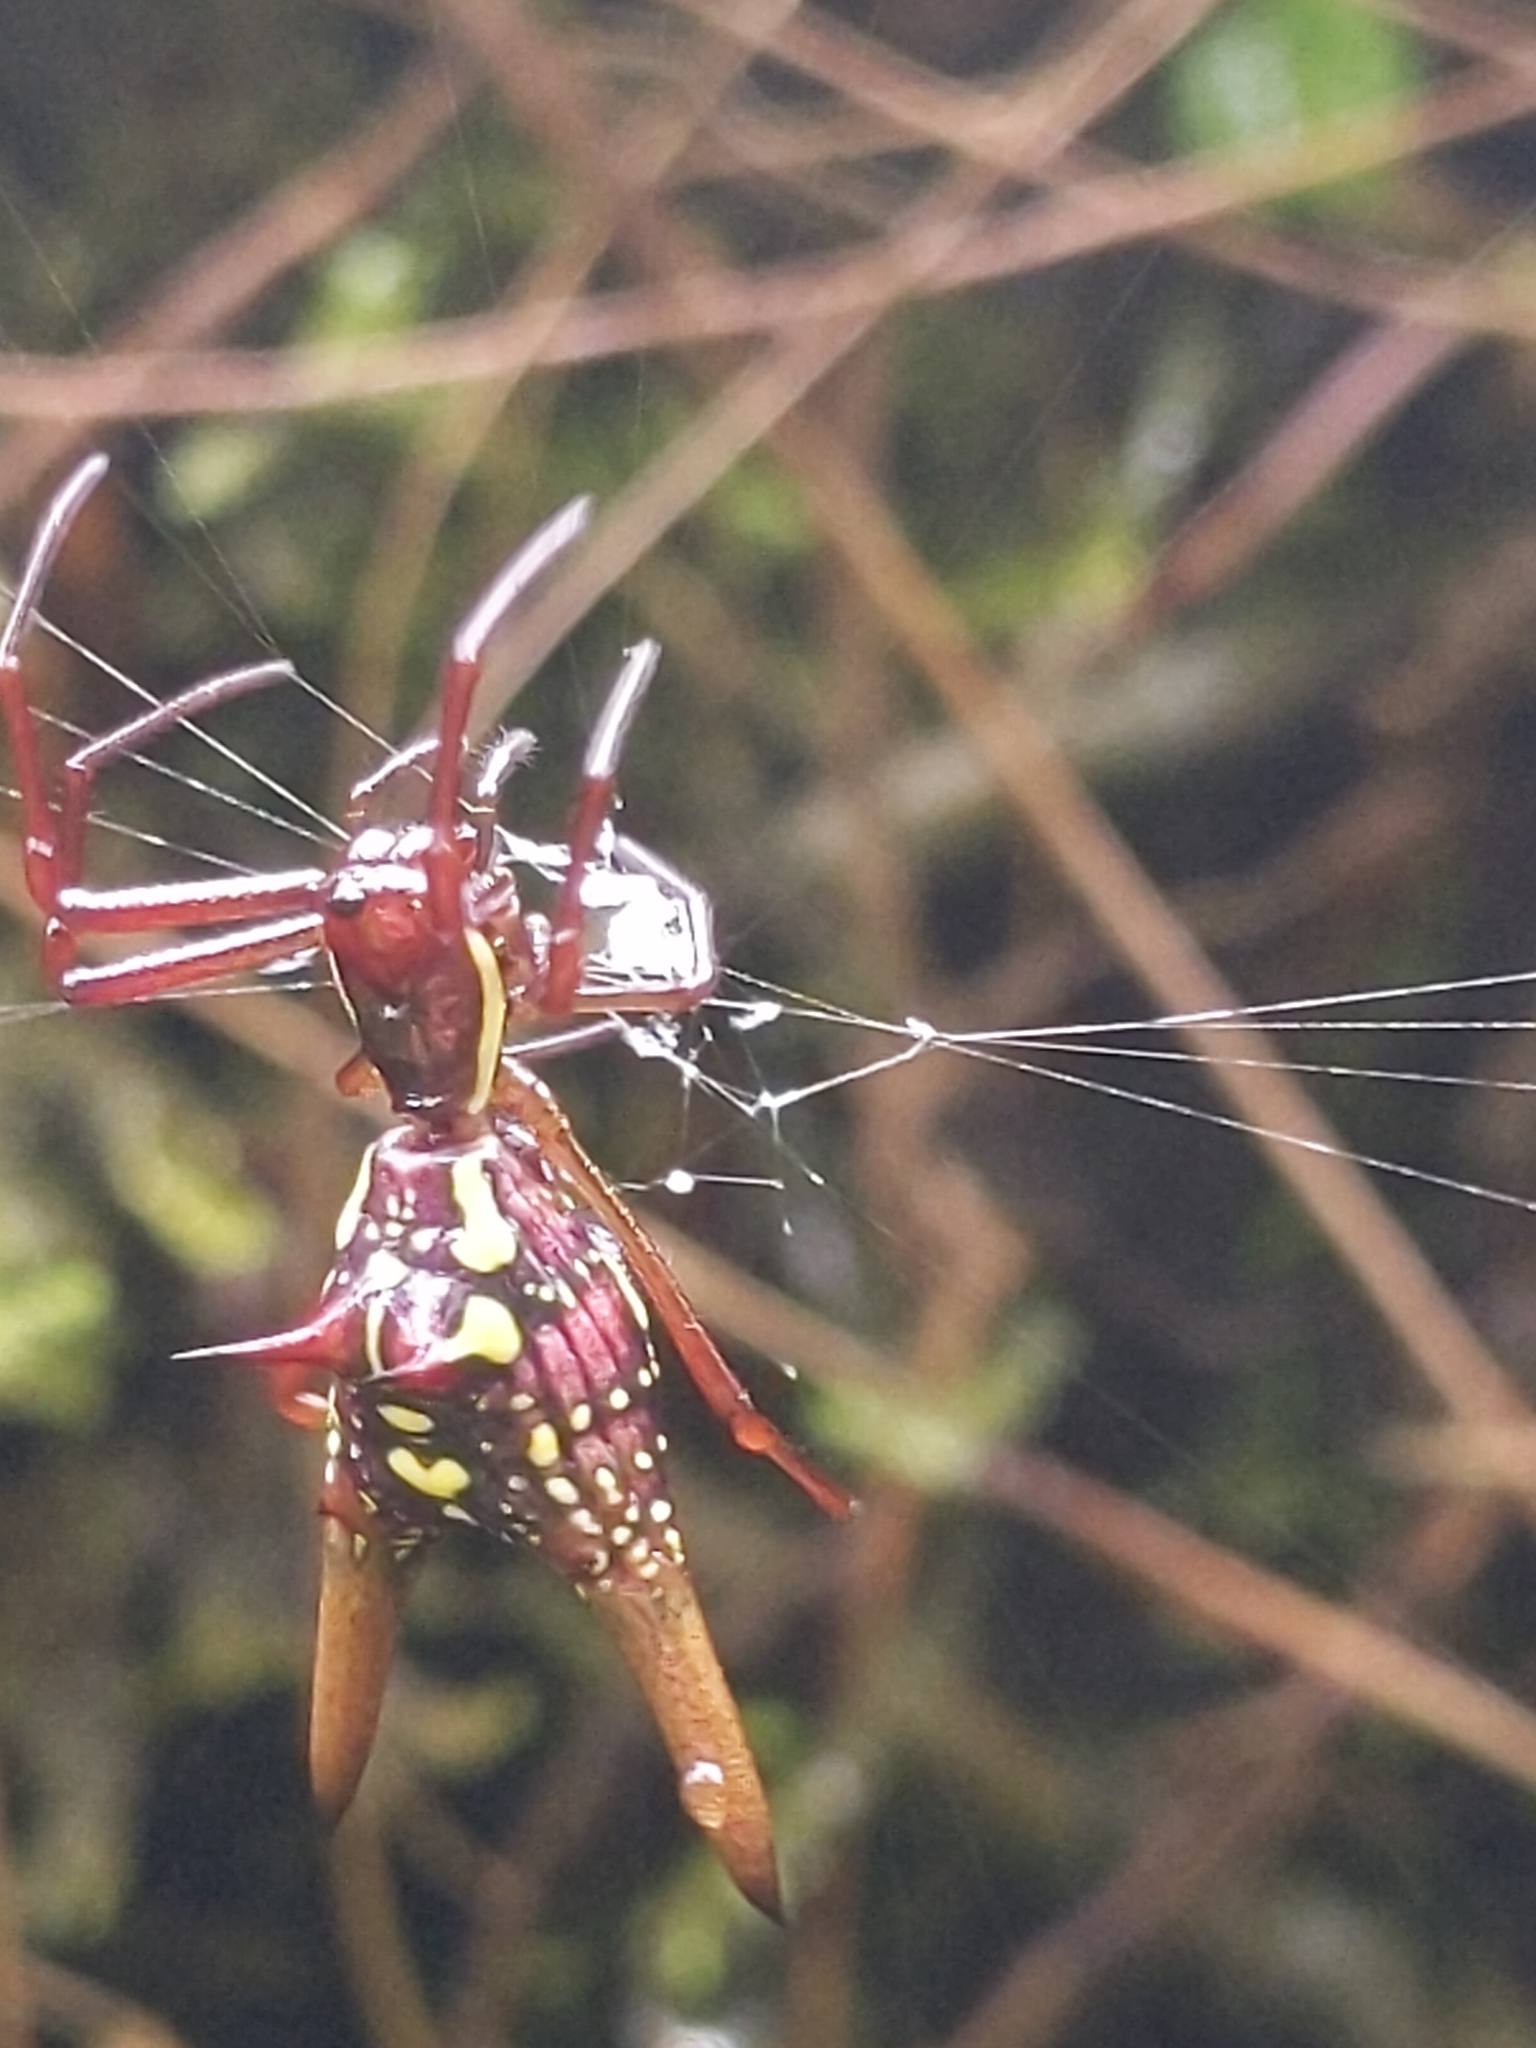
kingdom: Animalia
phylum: Arthropoda
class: Arachnida
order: Araneae
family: Araneidae
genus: Micrathena
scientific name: Micrathena sexspinosa
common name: Orb weavers
